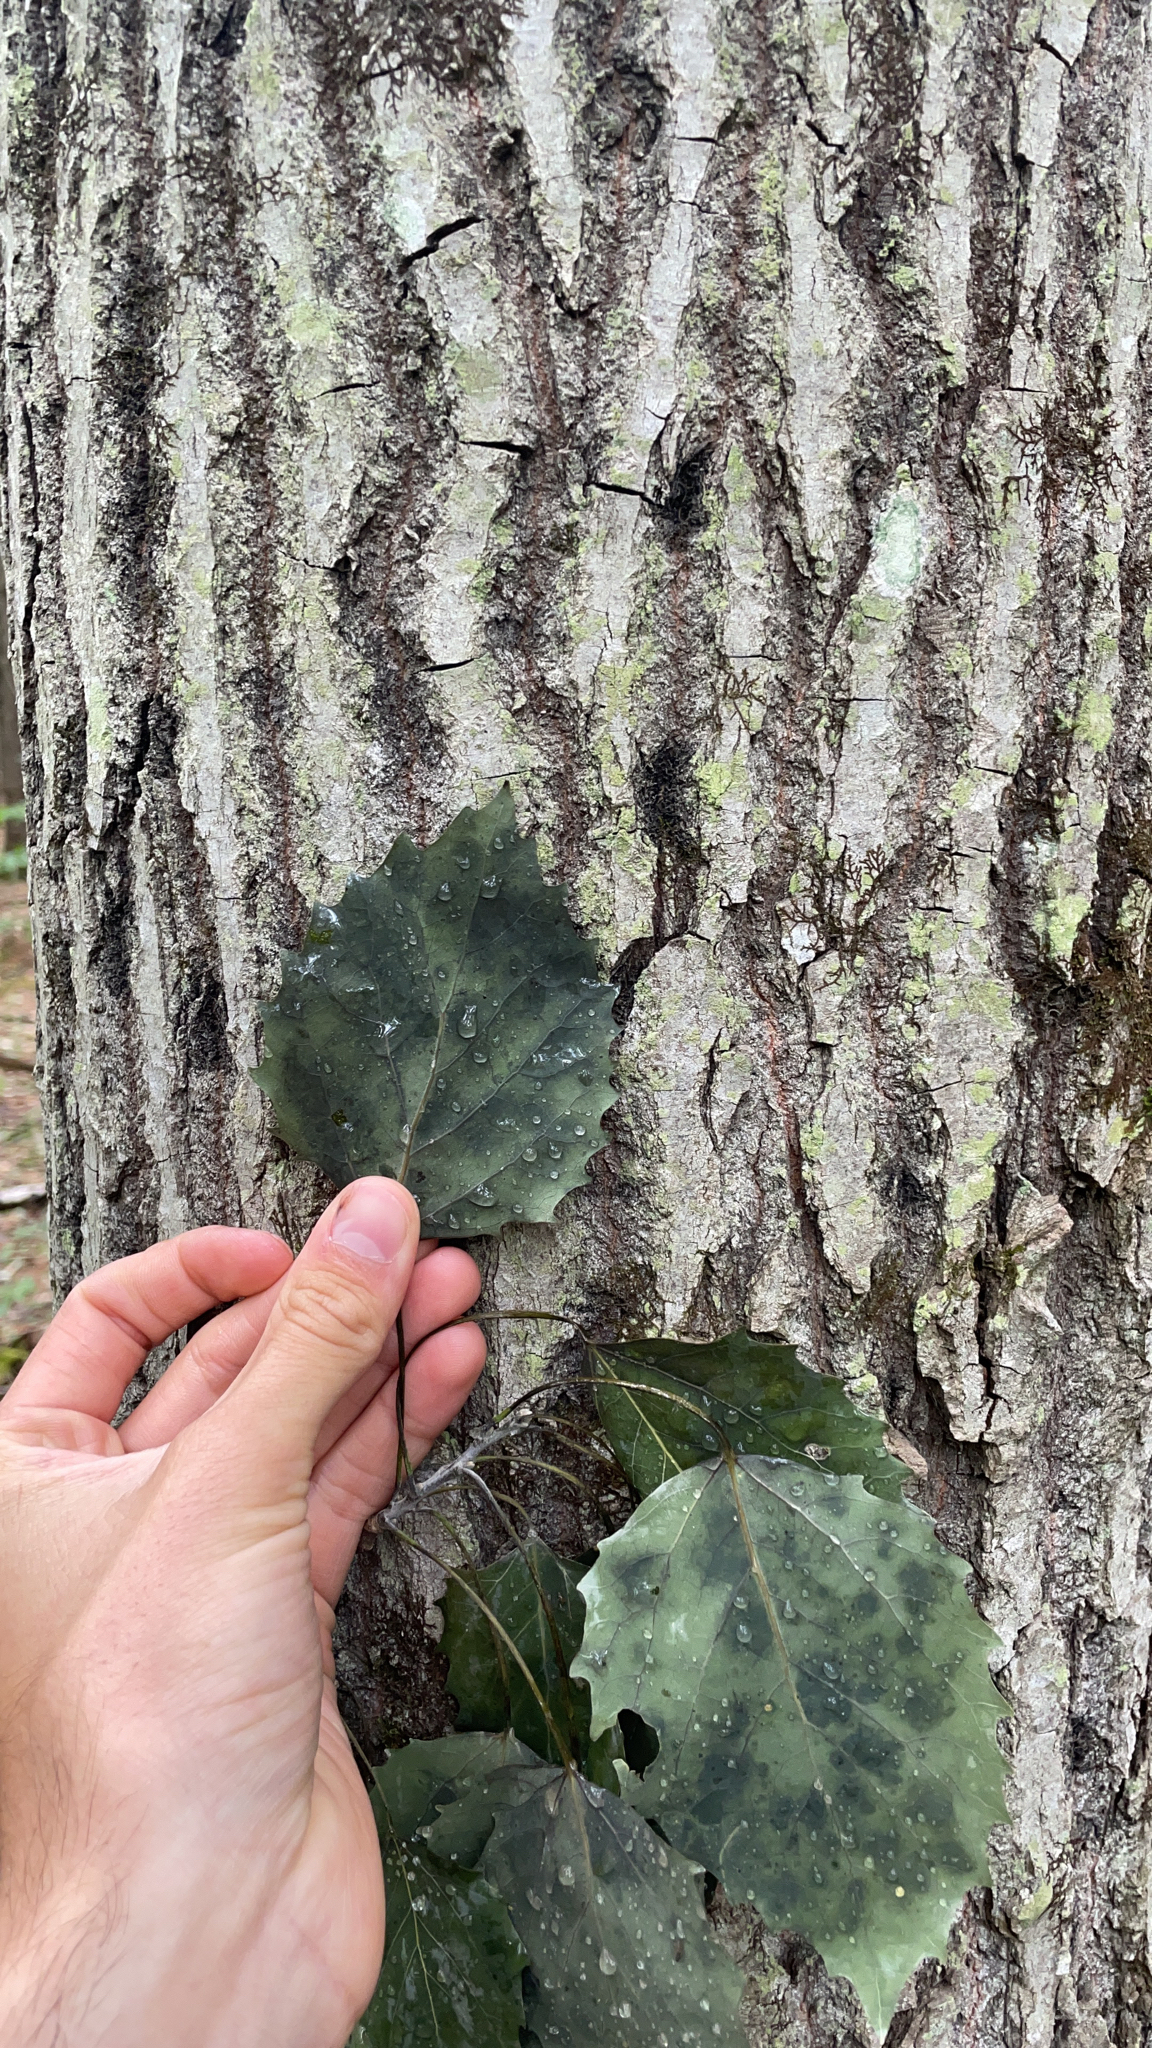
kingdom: Plantae
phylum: Tracheophyta
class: Magnoliopsida
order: Malpighiales
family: Salicaceae
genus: Populus
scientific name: Populus grandidentata
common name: Bigtooth aspen
